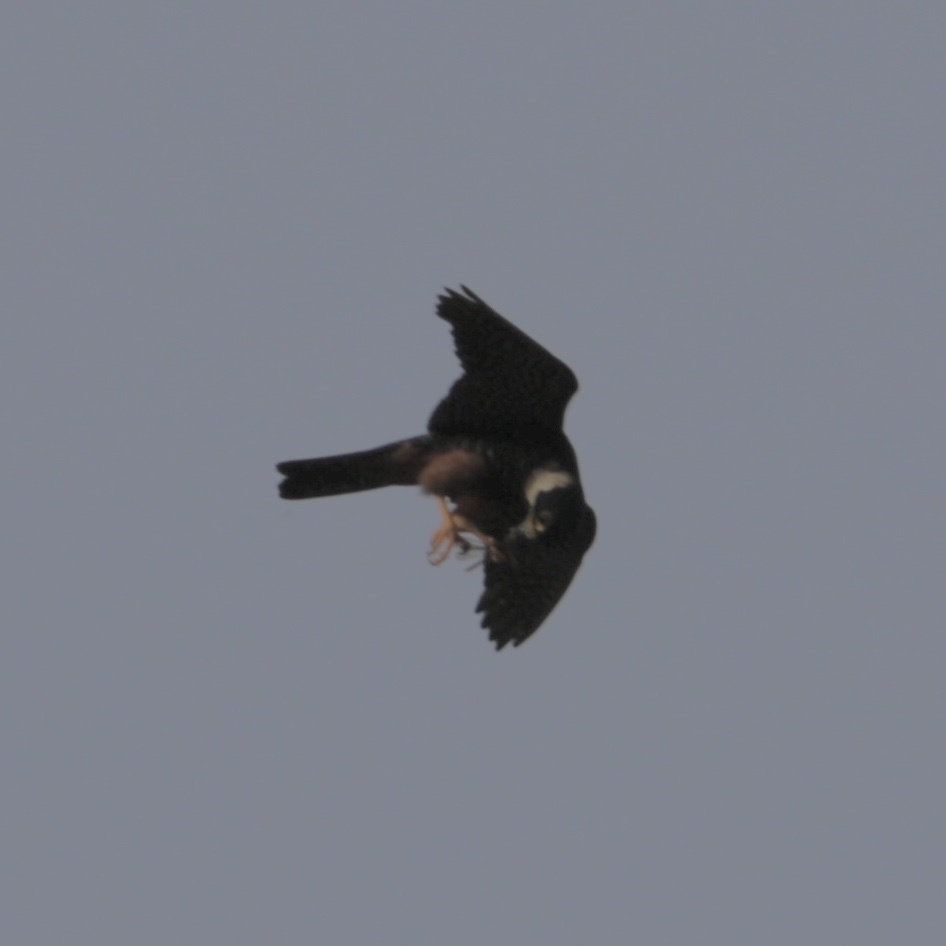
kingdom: Animalia
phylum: Chordata
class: Aves
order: Falconiformes
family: Falconidae
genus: Falco
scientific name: Falco rufigularis
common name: Bat falcon
